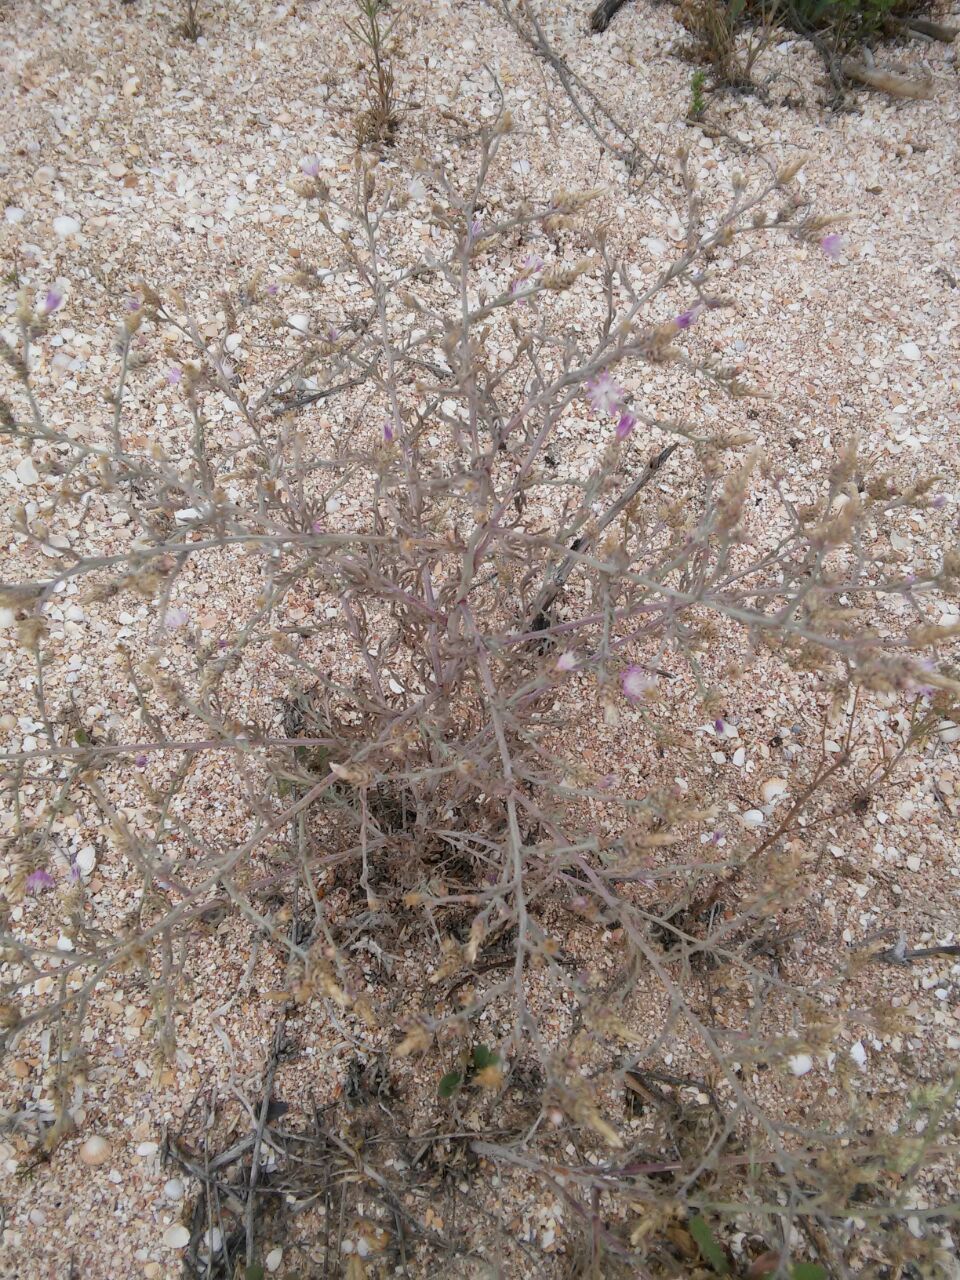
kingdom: Plantae
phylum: Tracheophyta
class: Magnoliopsida
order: Asterales
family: Asteraceae
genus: Centaurea
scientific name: Centaurea diffusa
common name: Diffuse knapweed
